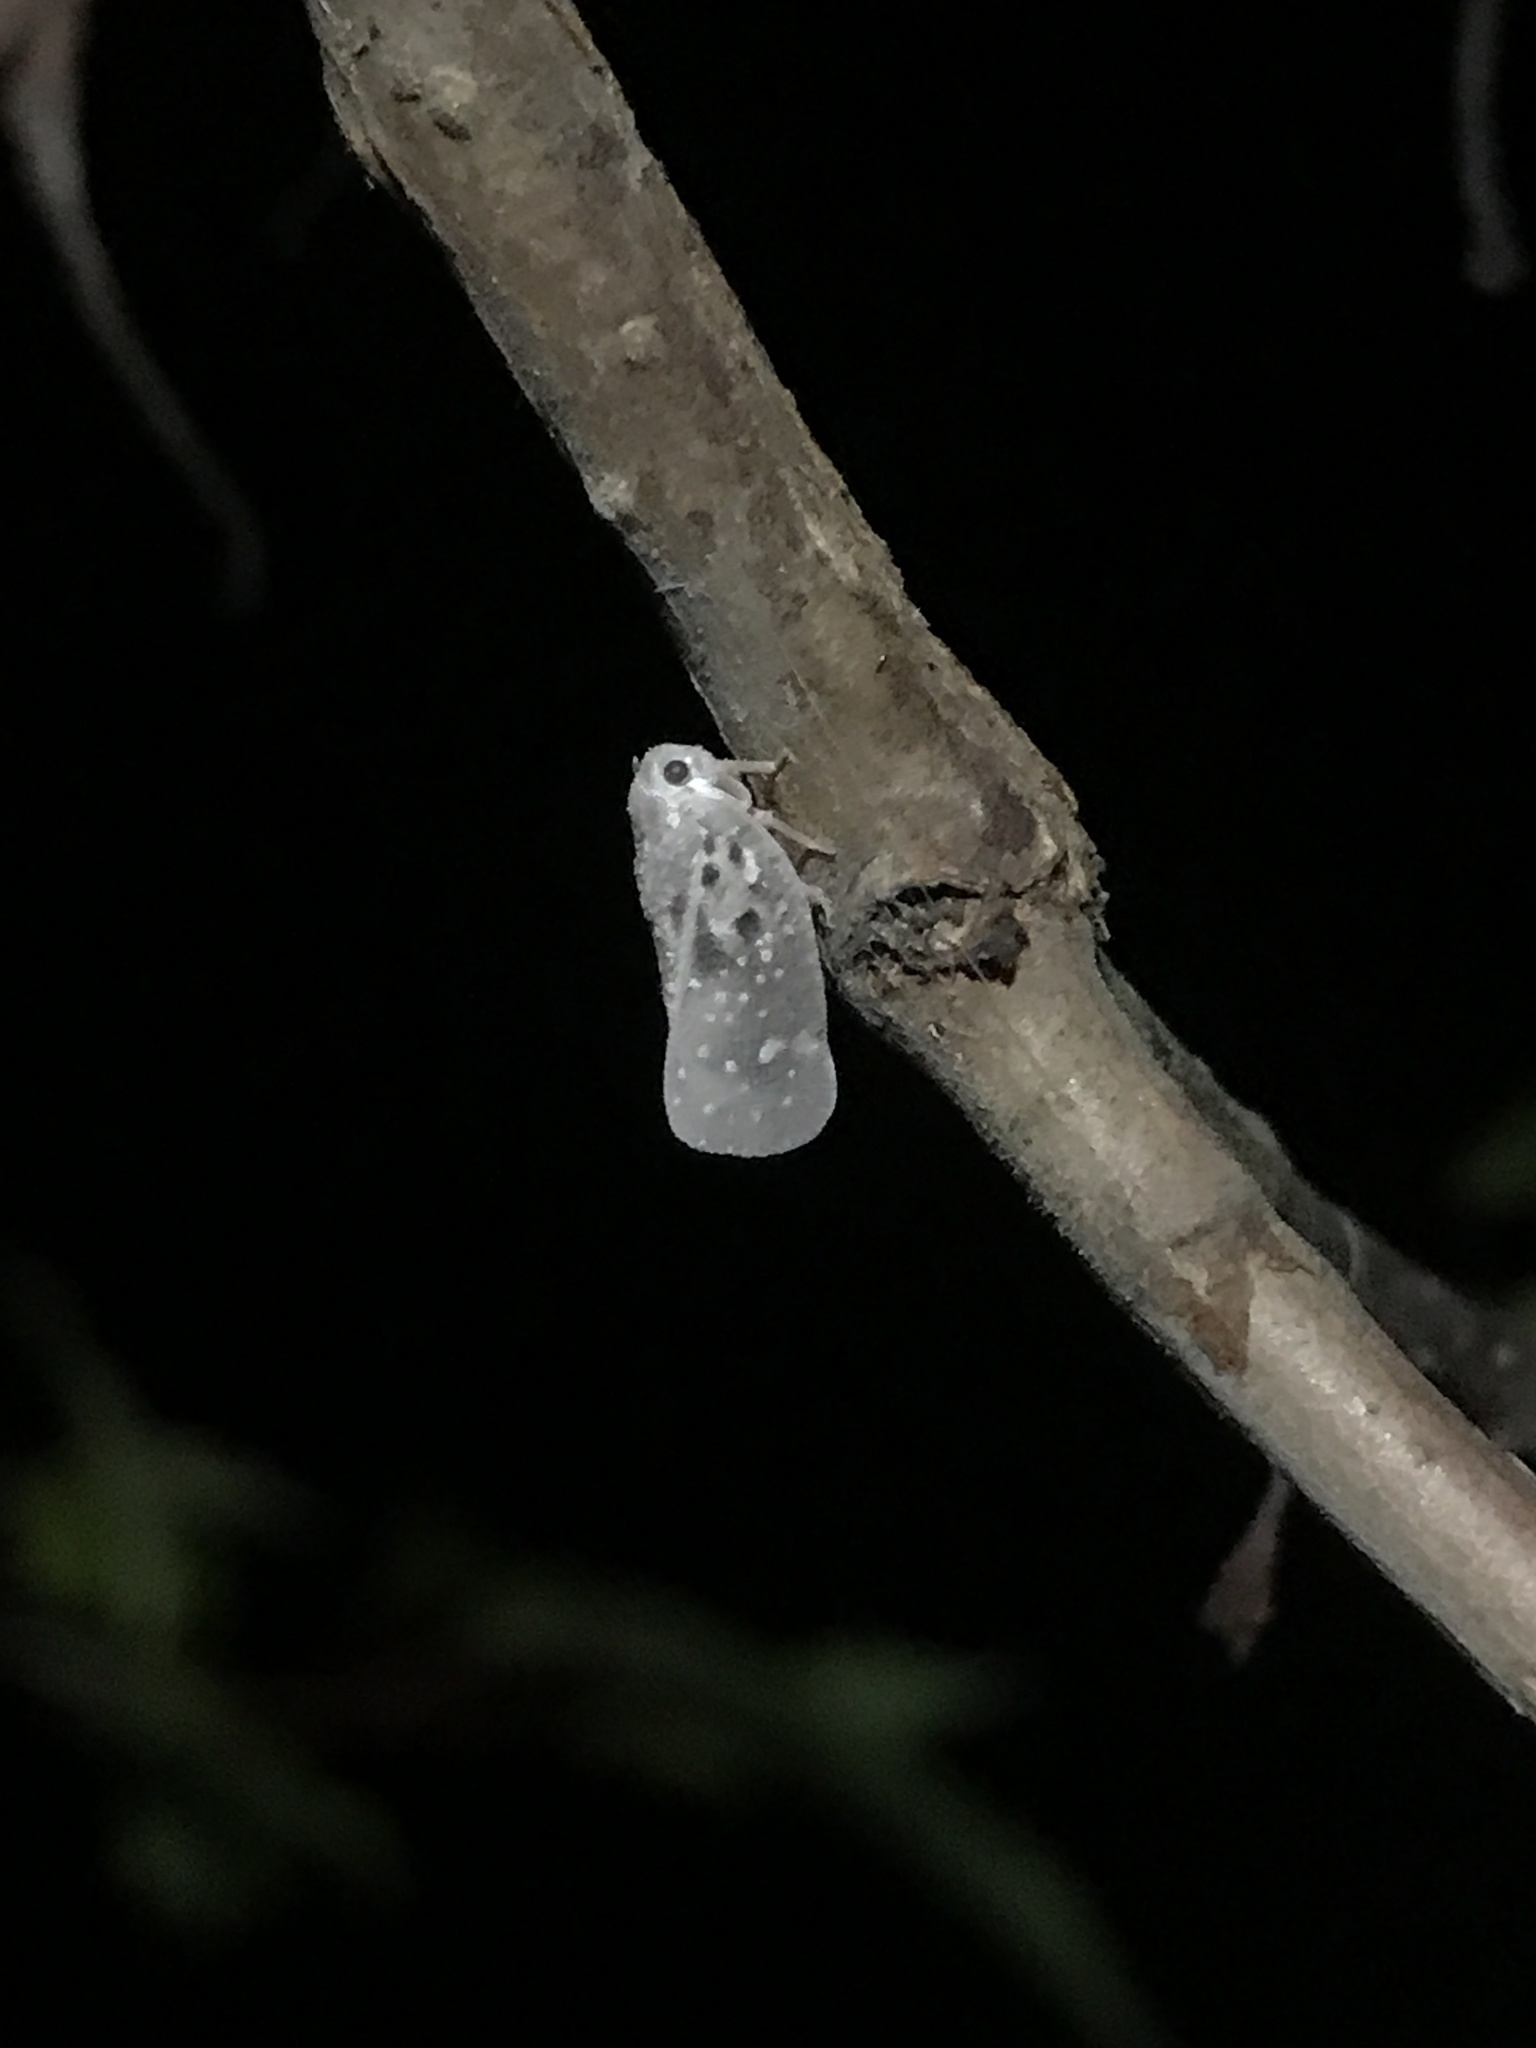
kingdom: Animalia
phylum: Arthropoda
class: Insecta
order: Hemiptera
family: Flatidae
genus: Metcalfa
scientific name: Metcalfa pruinosa
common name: Citrus flatid planthopper
